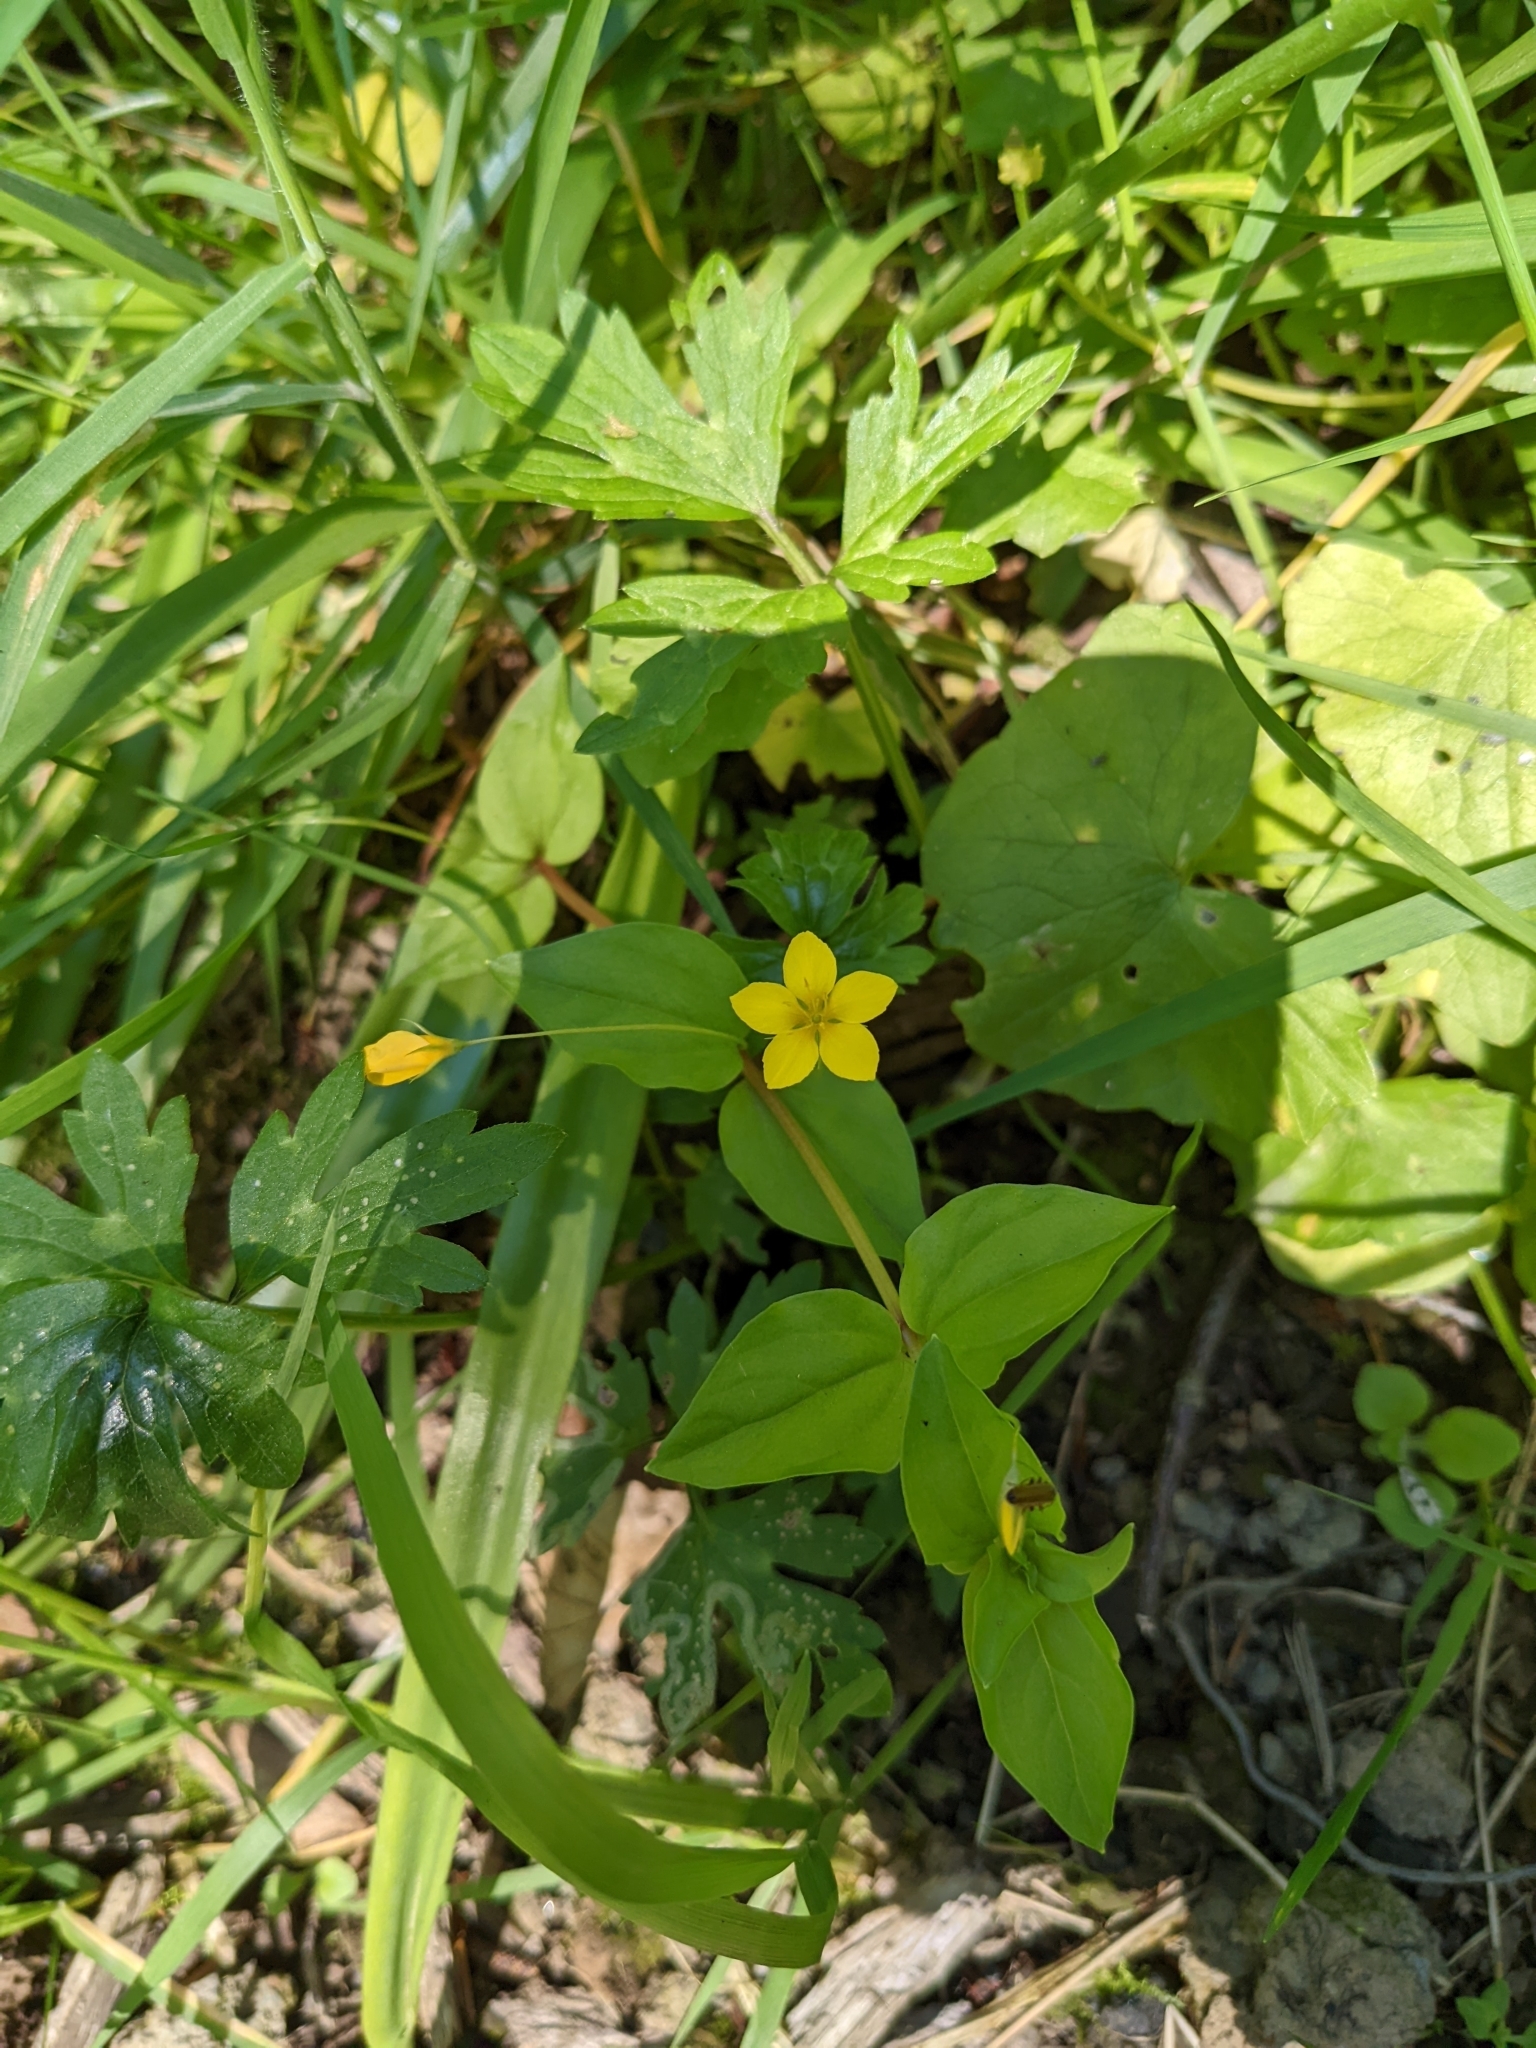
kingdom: Plantae
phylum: Tracheophyta
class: Magnoliopsida
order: Ericales
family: Primulaceae
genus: Lysimachia
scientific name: Lysimachia nemorum
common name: Yellow pimpernel
